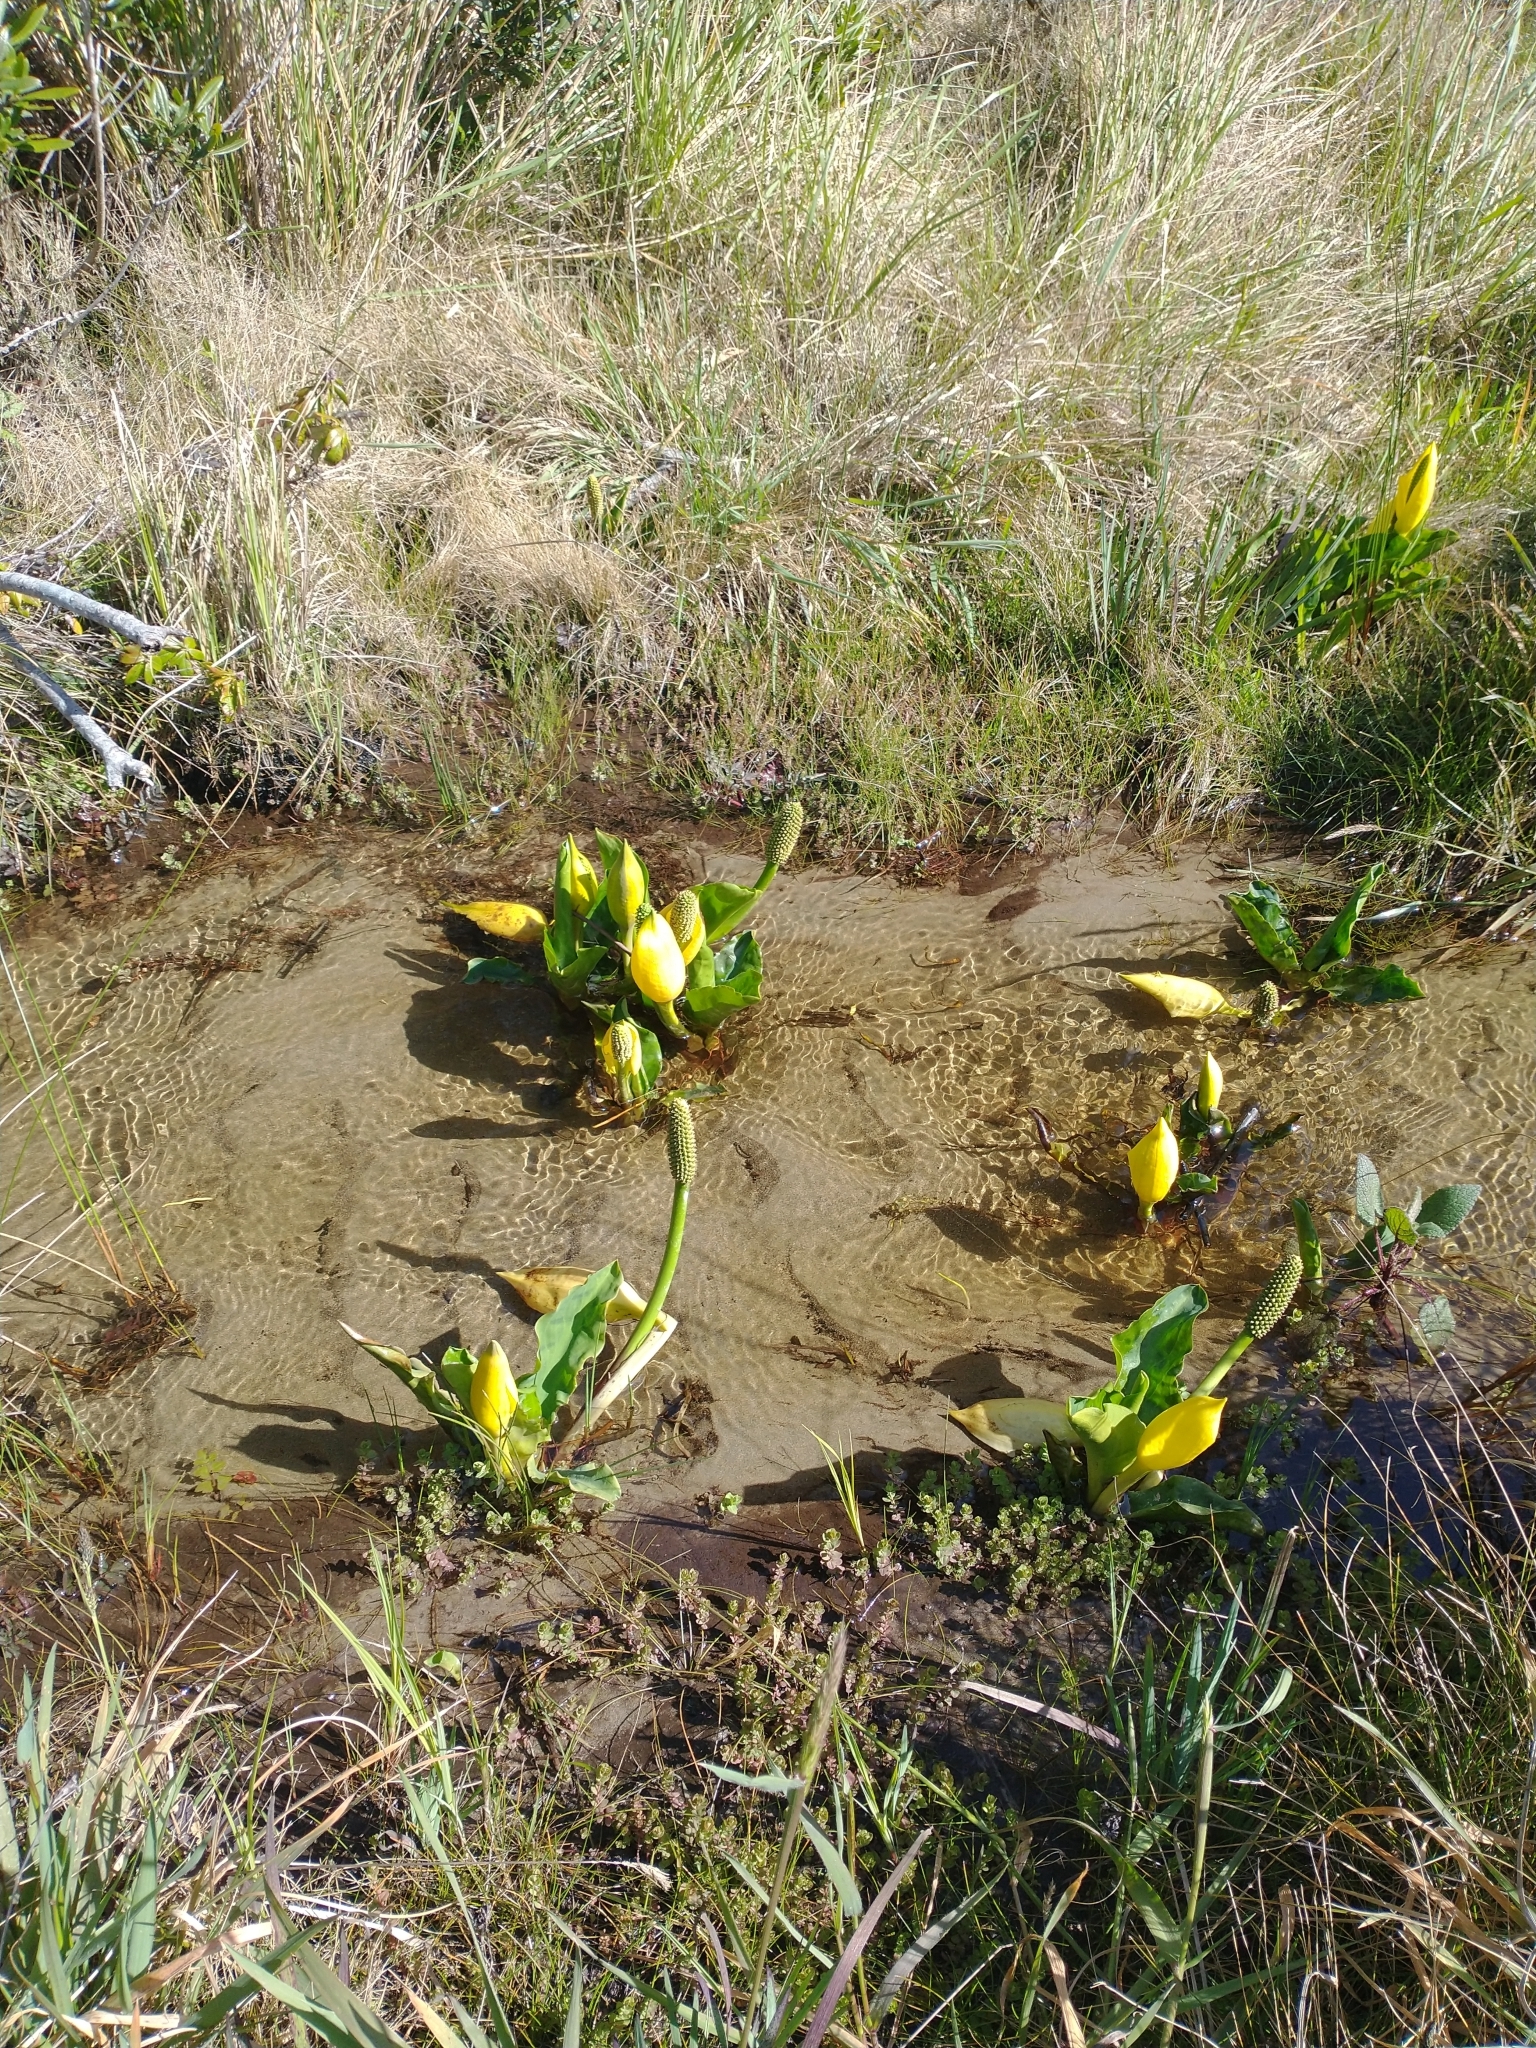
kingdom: Plantae
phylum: Tracheophyta
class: Liliopsida
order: Alismatales
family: Araceae
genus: Lysichiton
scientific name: Lysichiton americanus
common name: American skunk cabbage
